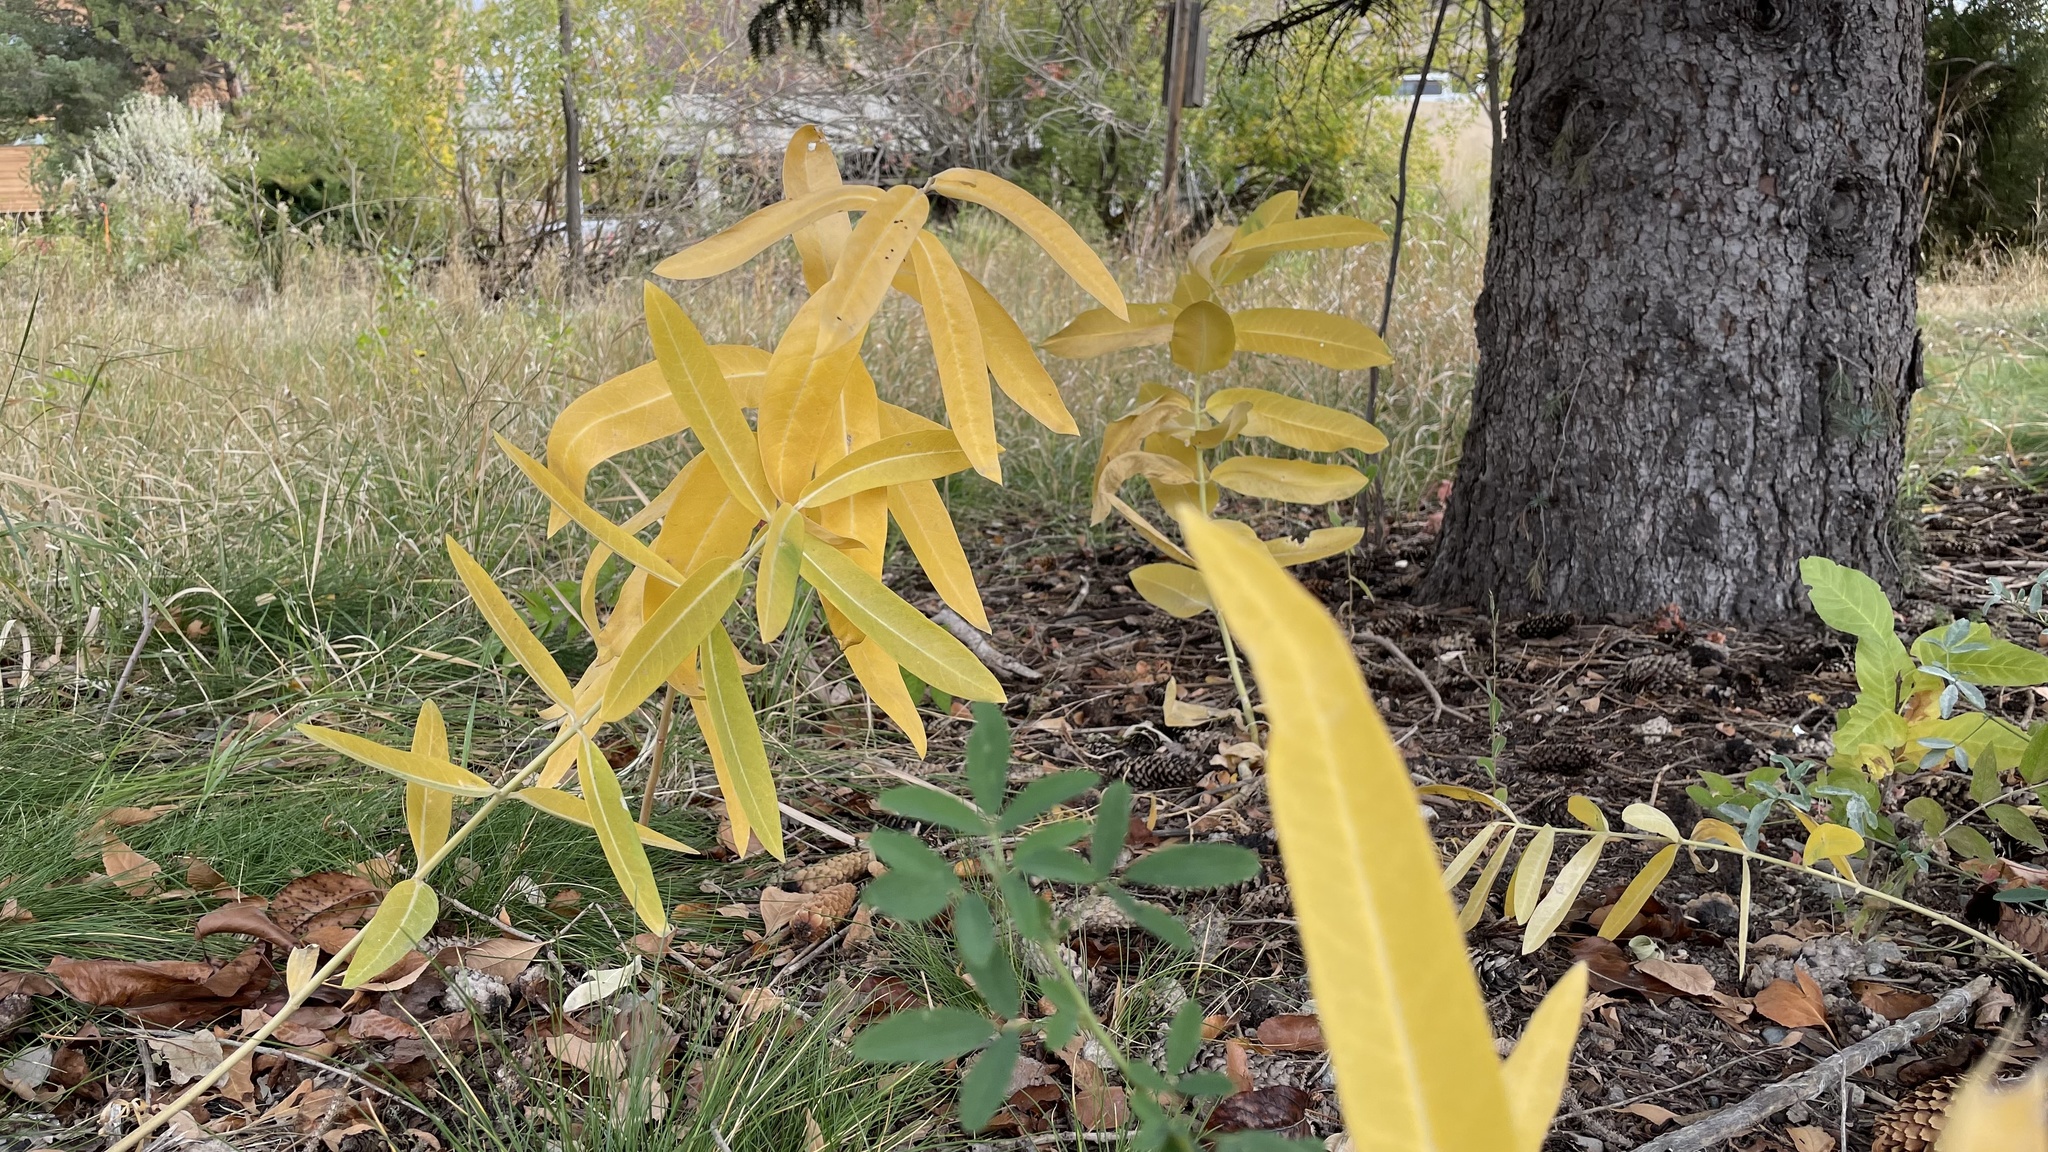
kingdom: Plantae
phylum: Tracheophyta
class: Magnoliopsida
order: Gentianales
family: Apocynaceae
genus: Asclepias
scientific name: Asclepias speciosa
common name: Showy milkweed
